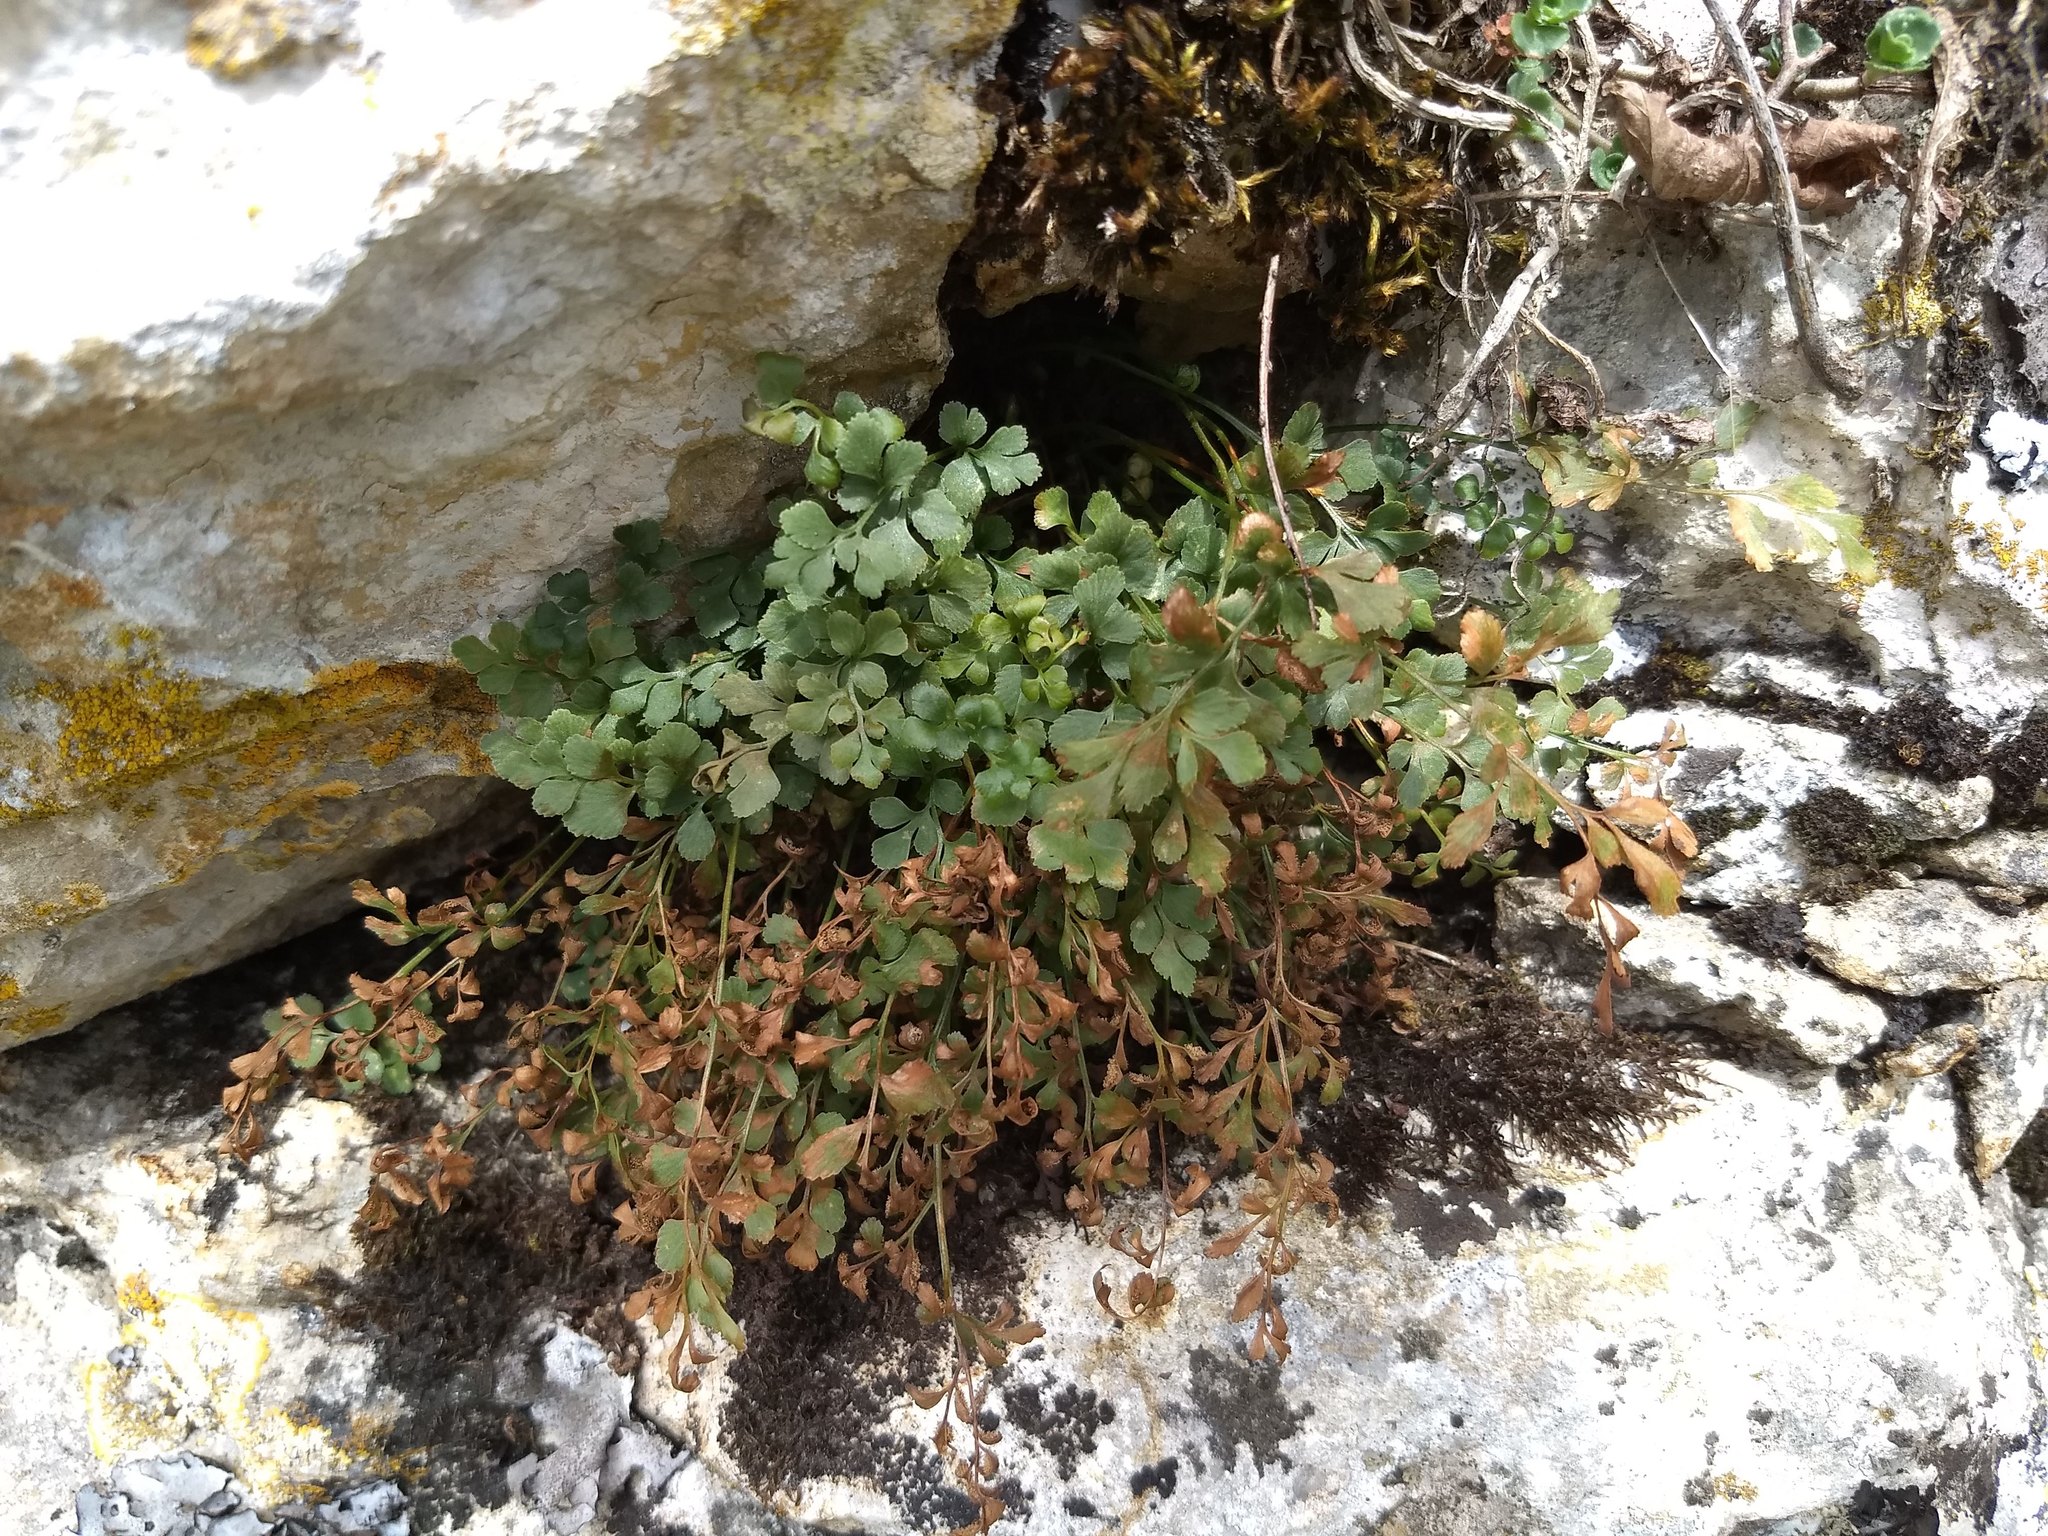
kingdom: Plantae
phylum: Tracheophyta
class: Polypodiopsida
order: Polypodiales
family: Aspleniaceae
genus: Asplenium
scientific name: Asplenium ruta-muraria
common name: Wall-rue
